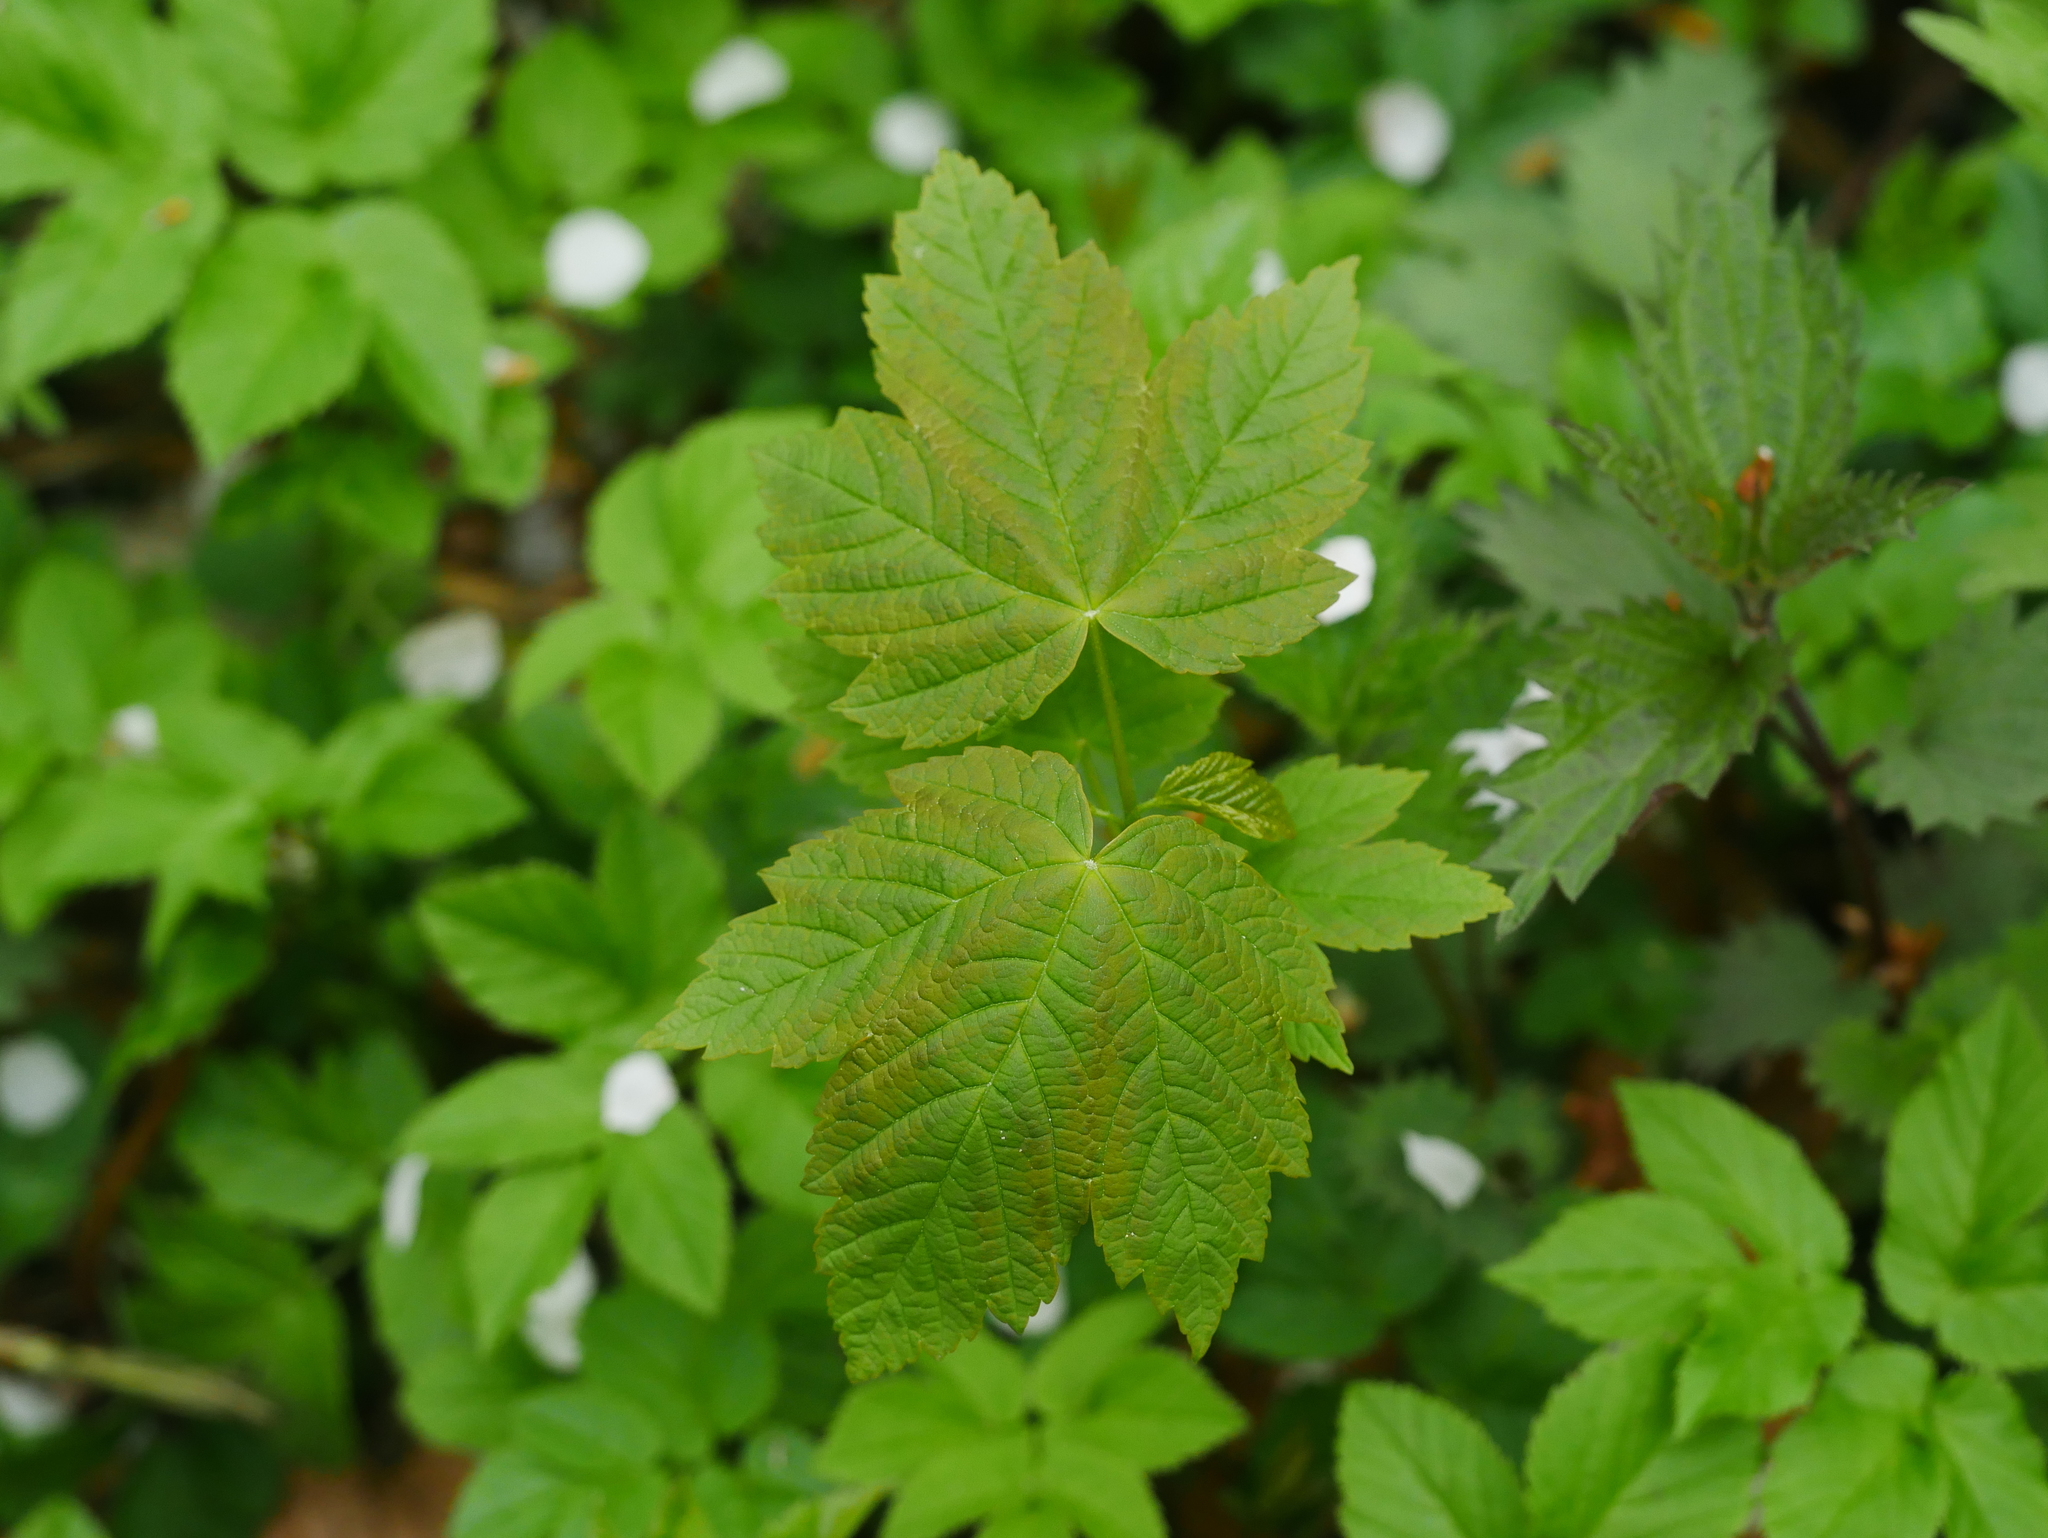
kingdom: Plantae
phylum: Tracheophyta
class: Magnoliopsida
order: Sapindales
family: Sapindaceae
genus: Acer
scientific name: Acer pseudoplatanus
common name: Sycamore
